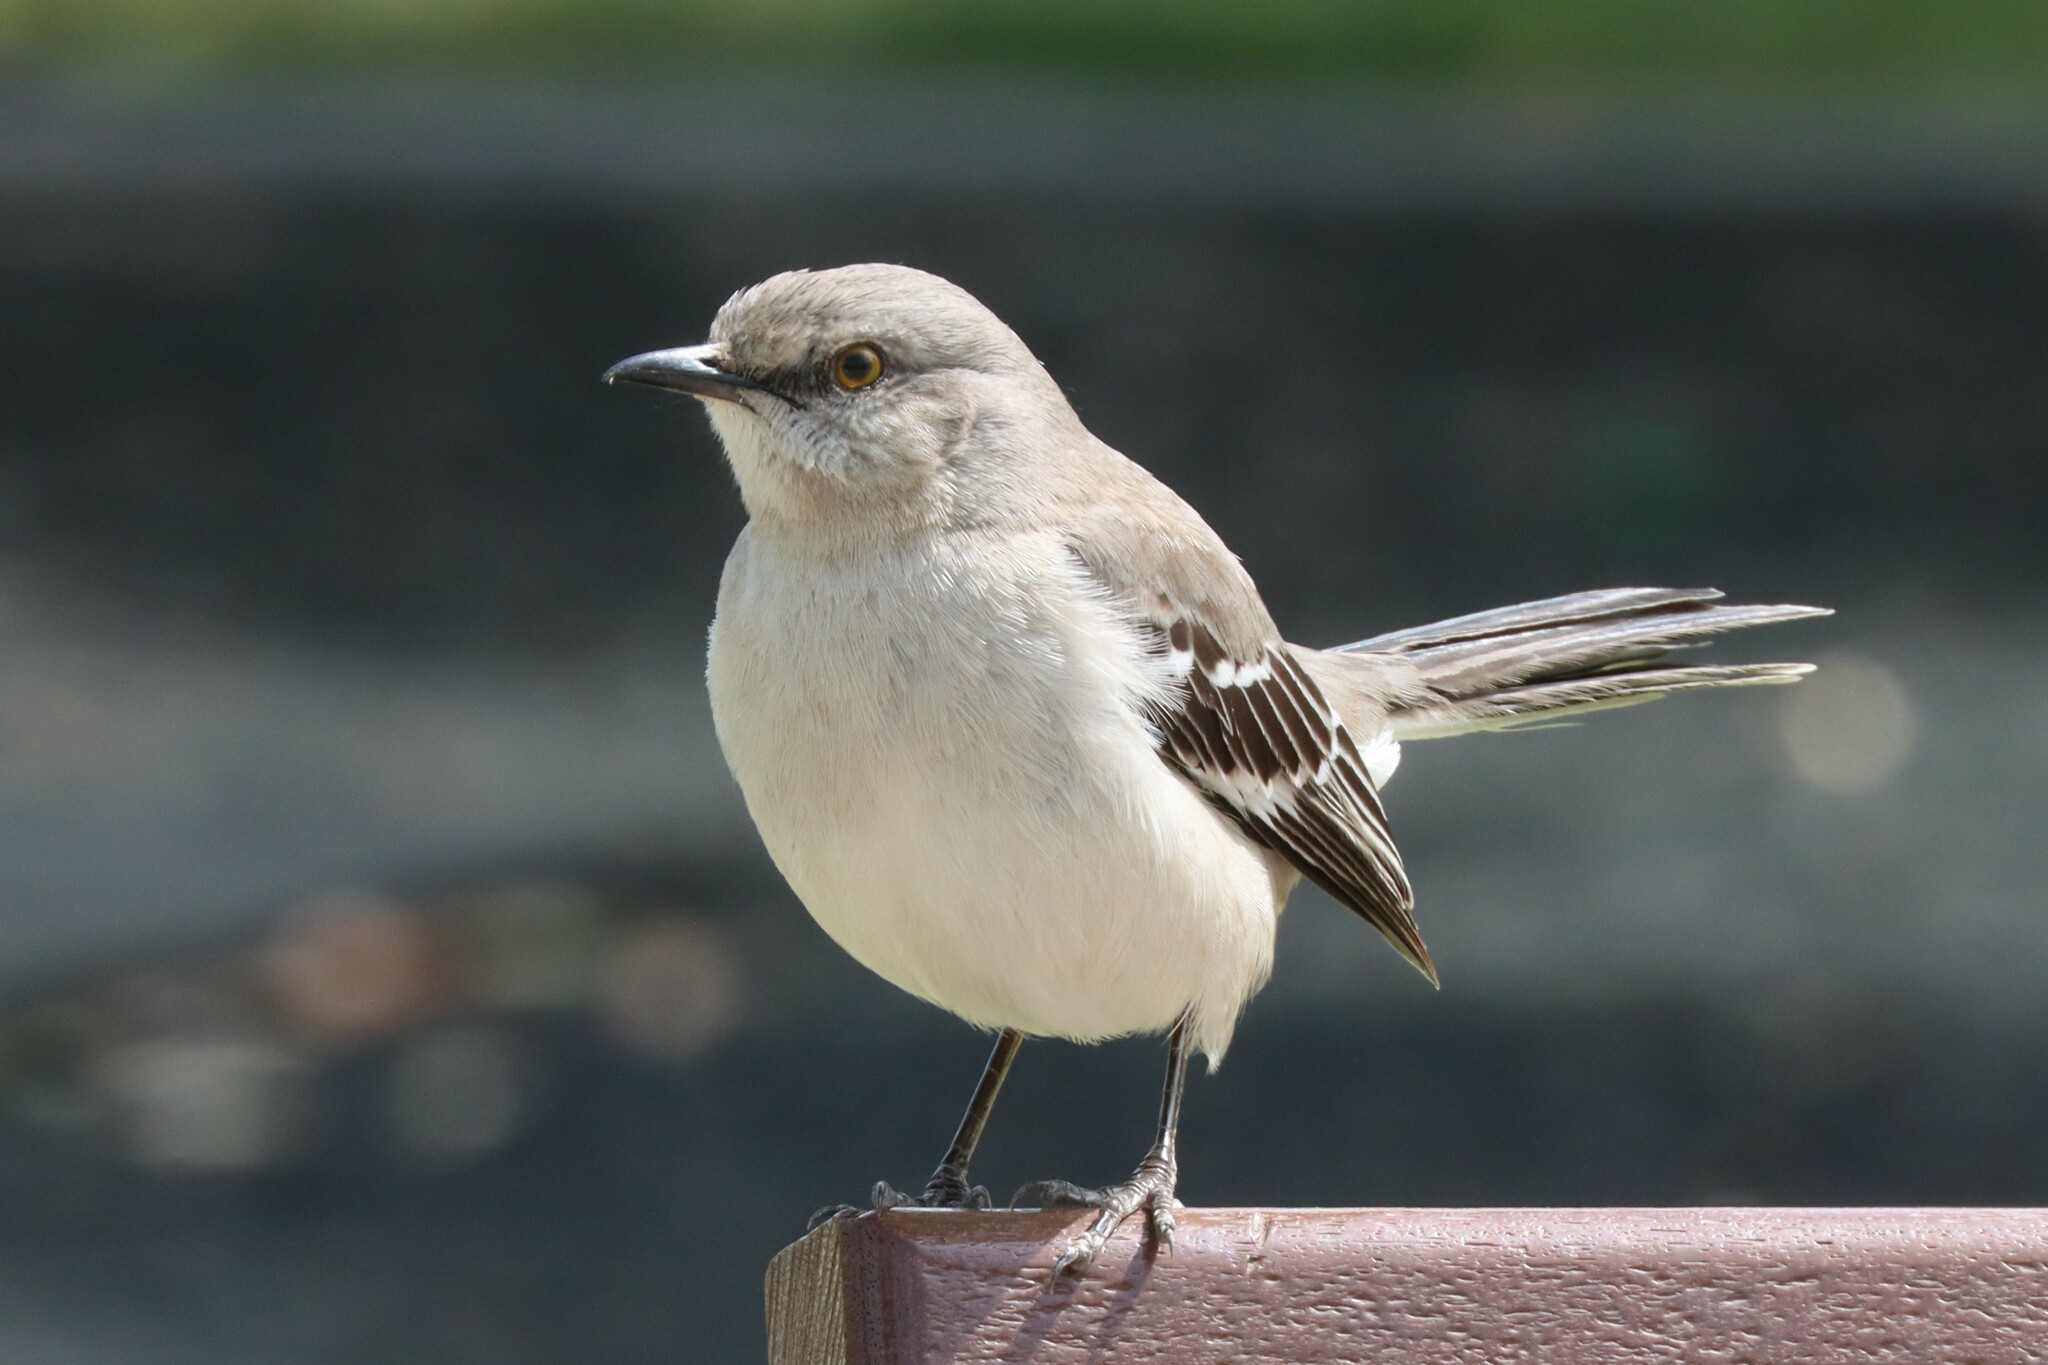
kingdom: Animalia
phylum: Chordata
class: Aves
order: Passeriformes
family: Mimidae
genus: Mimus
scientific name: Mimus polyglottos
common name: Northern mockingbird
